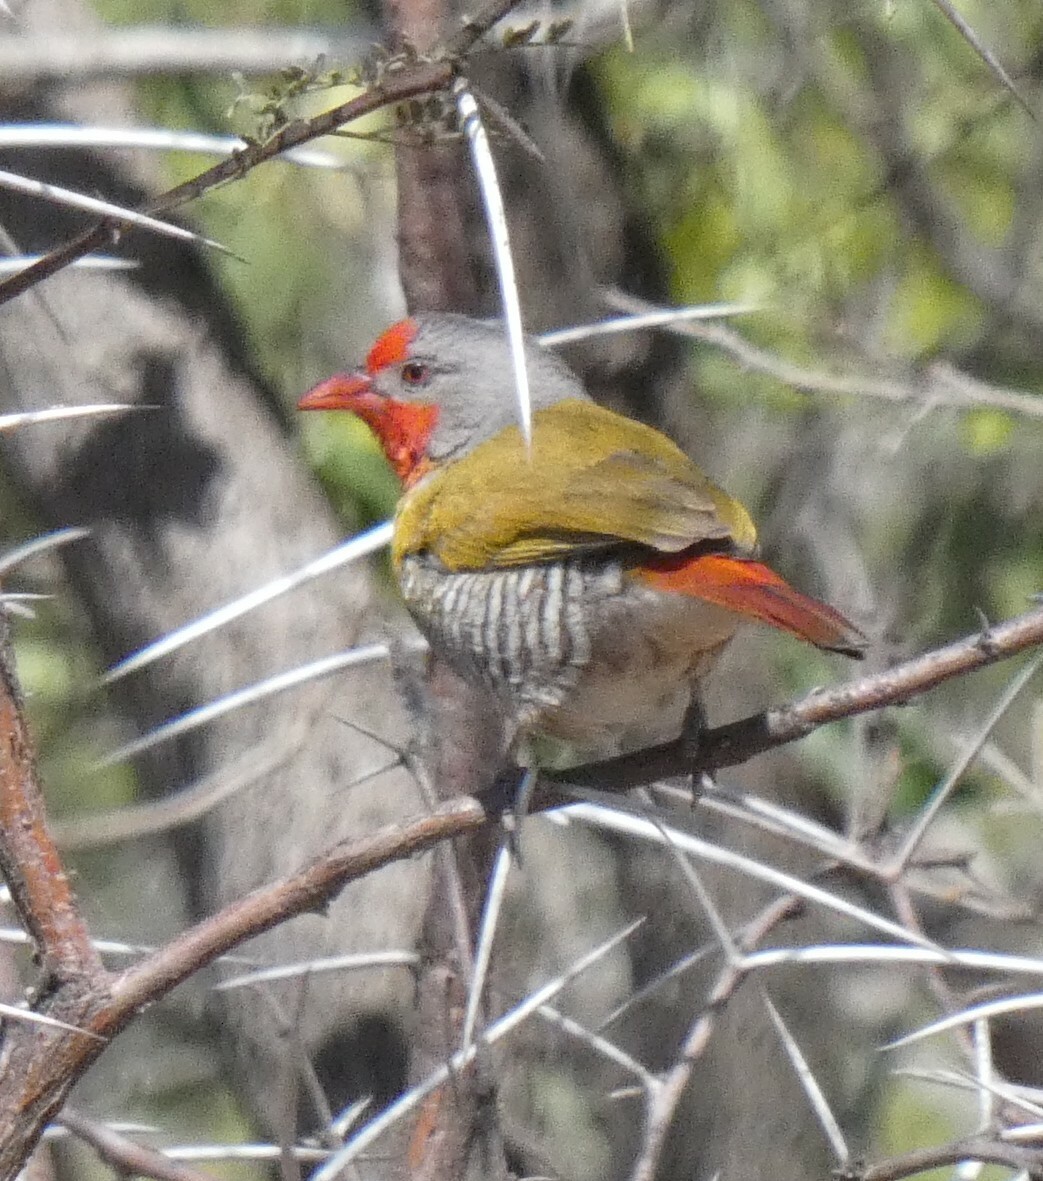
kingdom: Animalia
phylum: Chordata
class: Aves
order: Passeriformes
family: Estrildidae
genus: Pytilia
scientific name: Pytilia melba
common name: Green-winged pytilia
